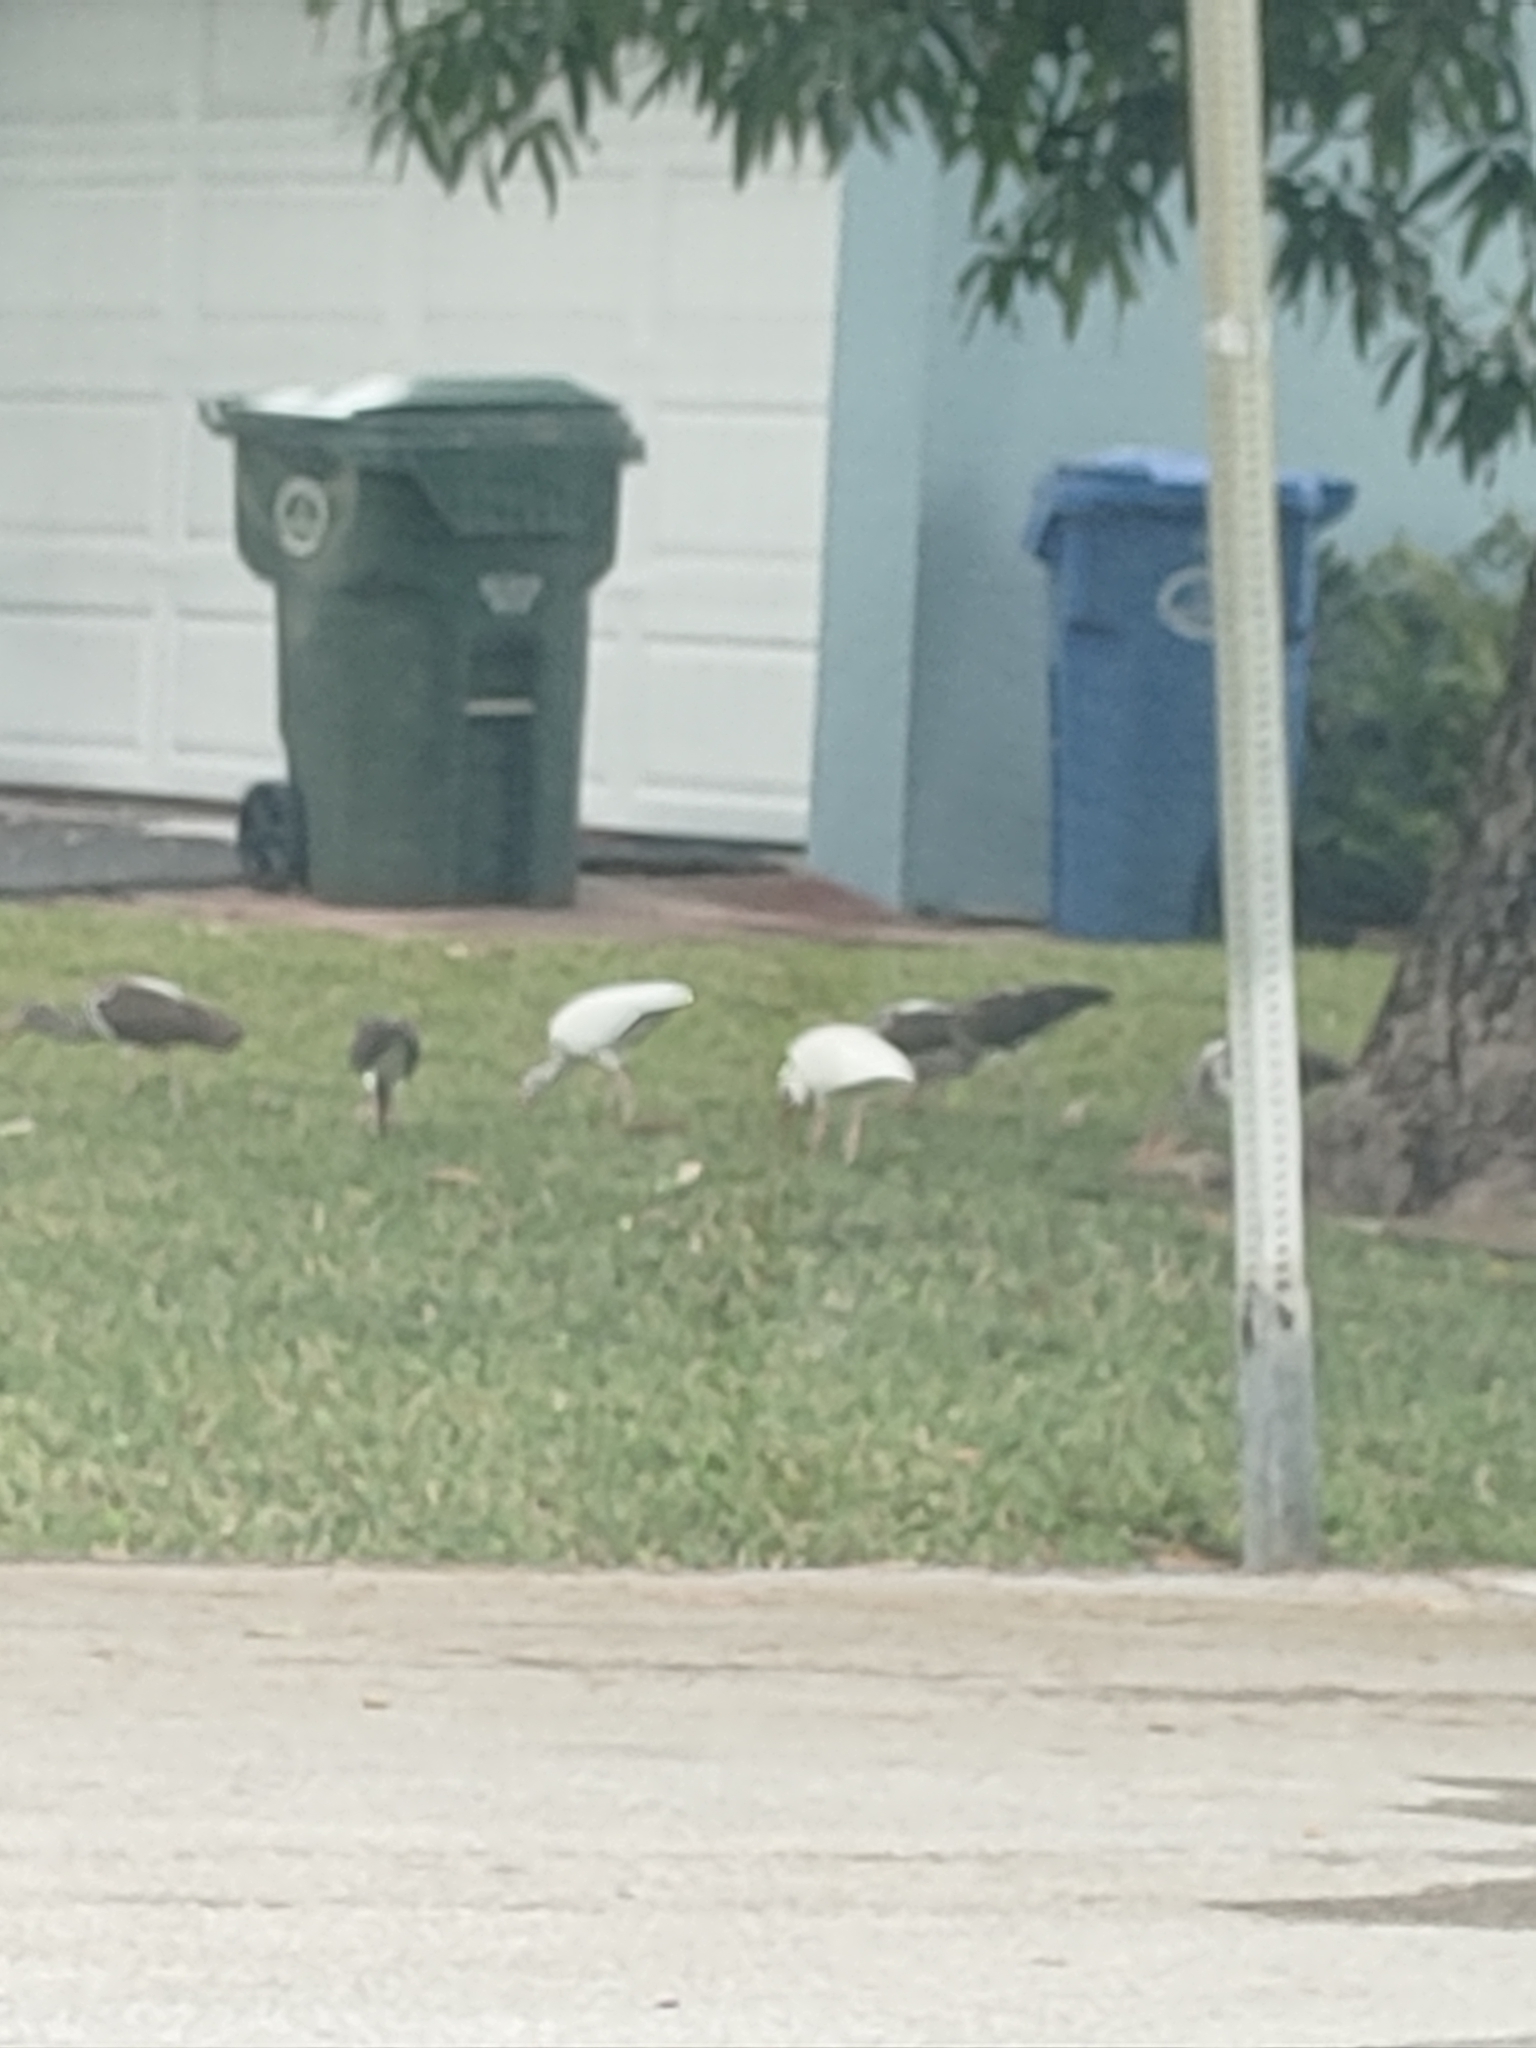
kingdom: Animalia
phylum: Chordata
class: Aves
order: Pelecaniformes
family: Threskiornithidae
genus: Eudocimus
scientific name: Eudocimus albus
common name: White ibis
